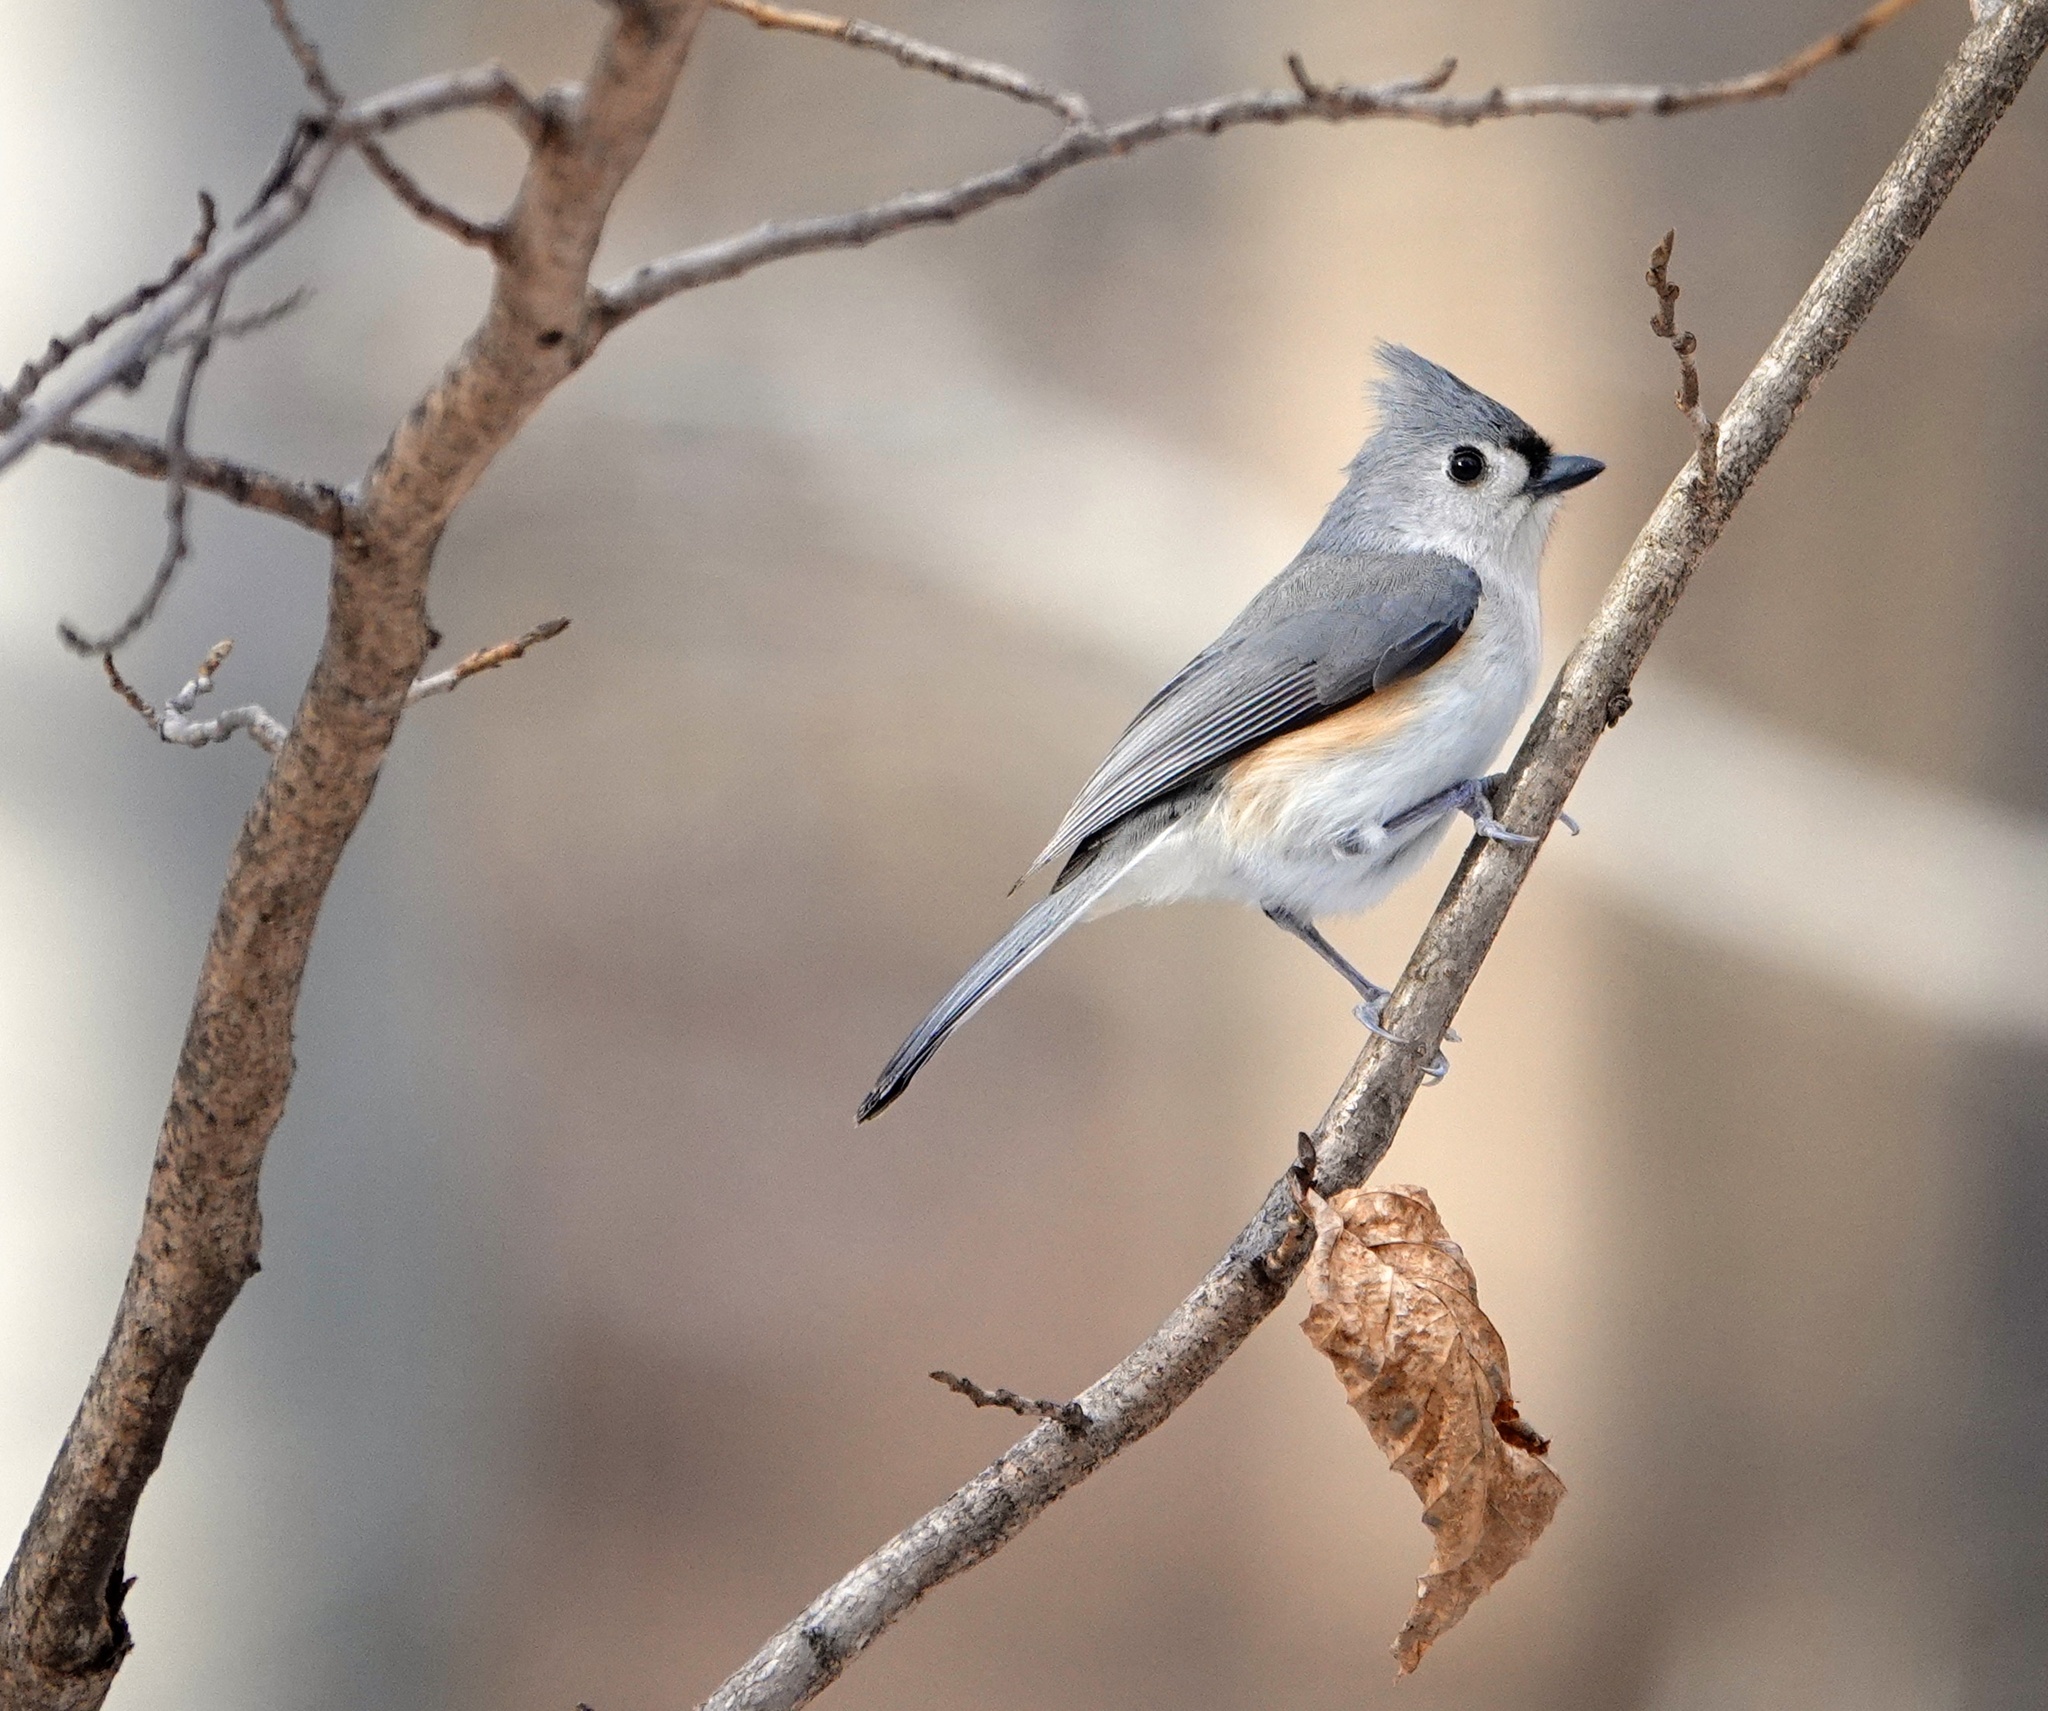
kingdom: Animalia
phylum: Chordata
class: Aves
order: Passeriformes
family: Paridae
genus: Baeolophus
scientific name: Baeolophus bicolor
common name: Tufted titmouse
